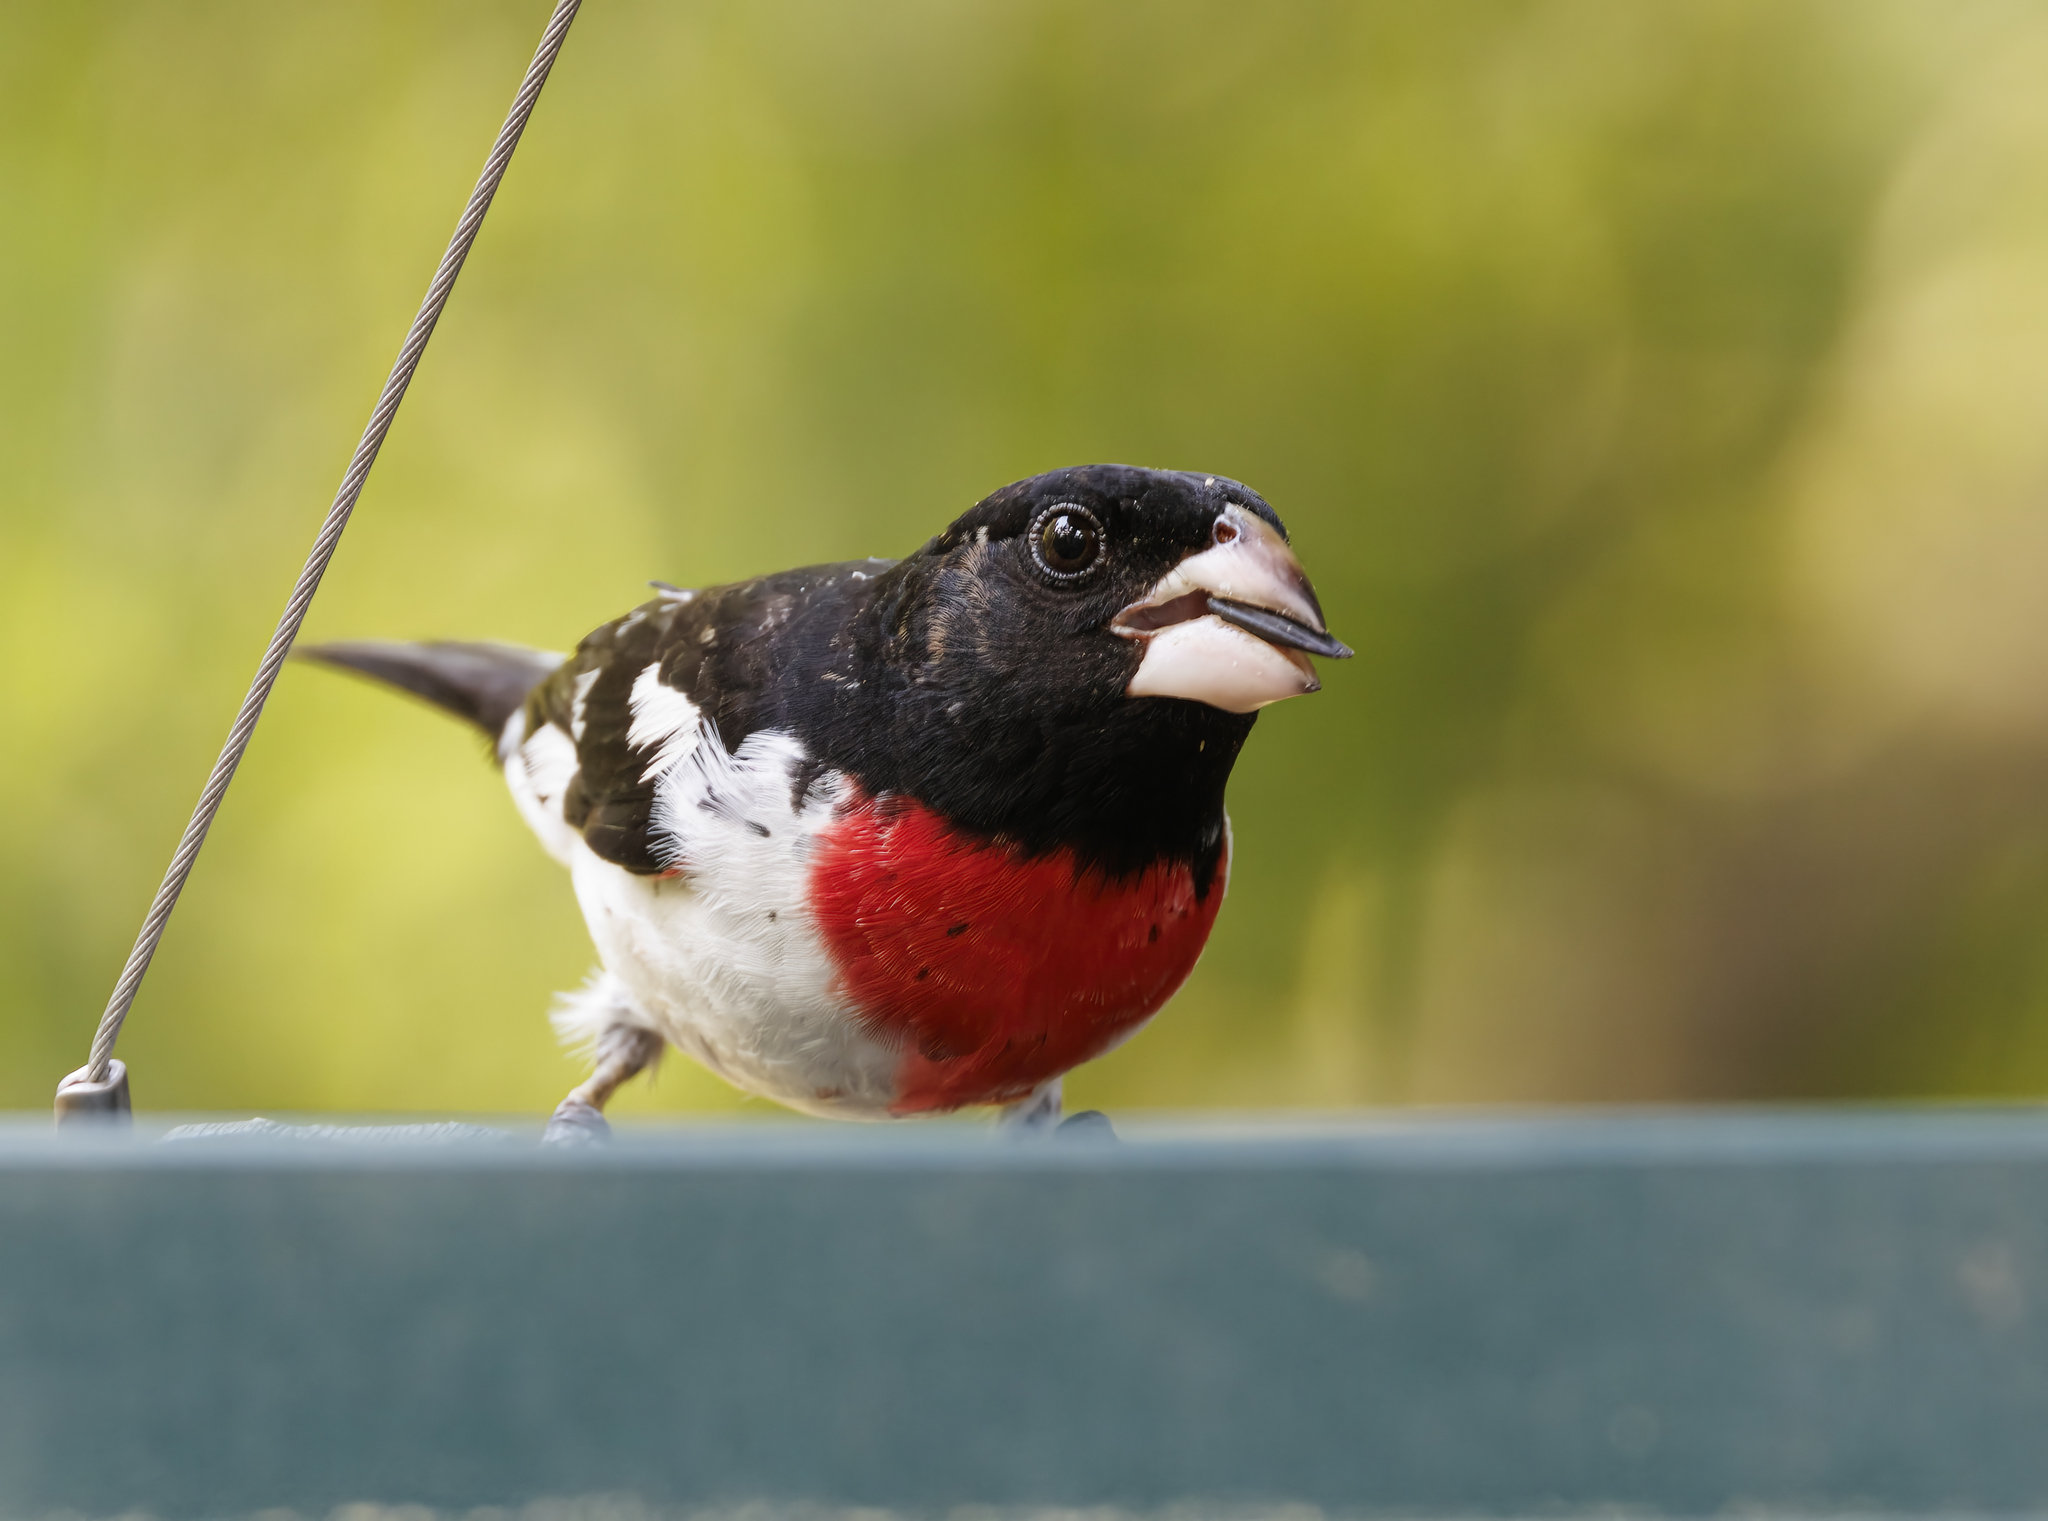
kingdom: Animalia
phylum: Chordata
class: Aves
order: Passeriformes
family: Cardinalidae
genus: Pheucticus
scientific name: Pheucticus ludovicianus
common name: Rose-breasted grosbeak
